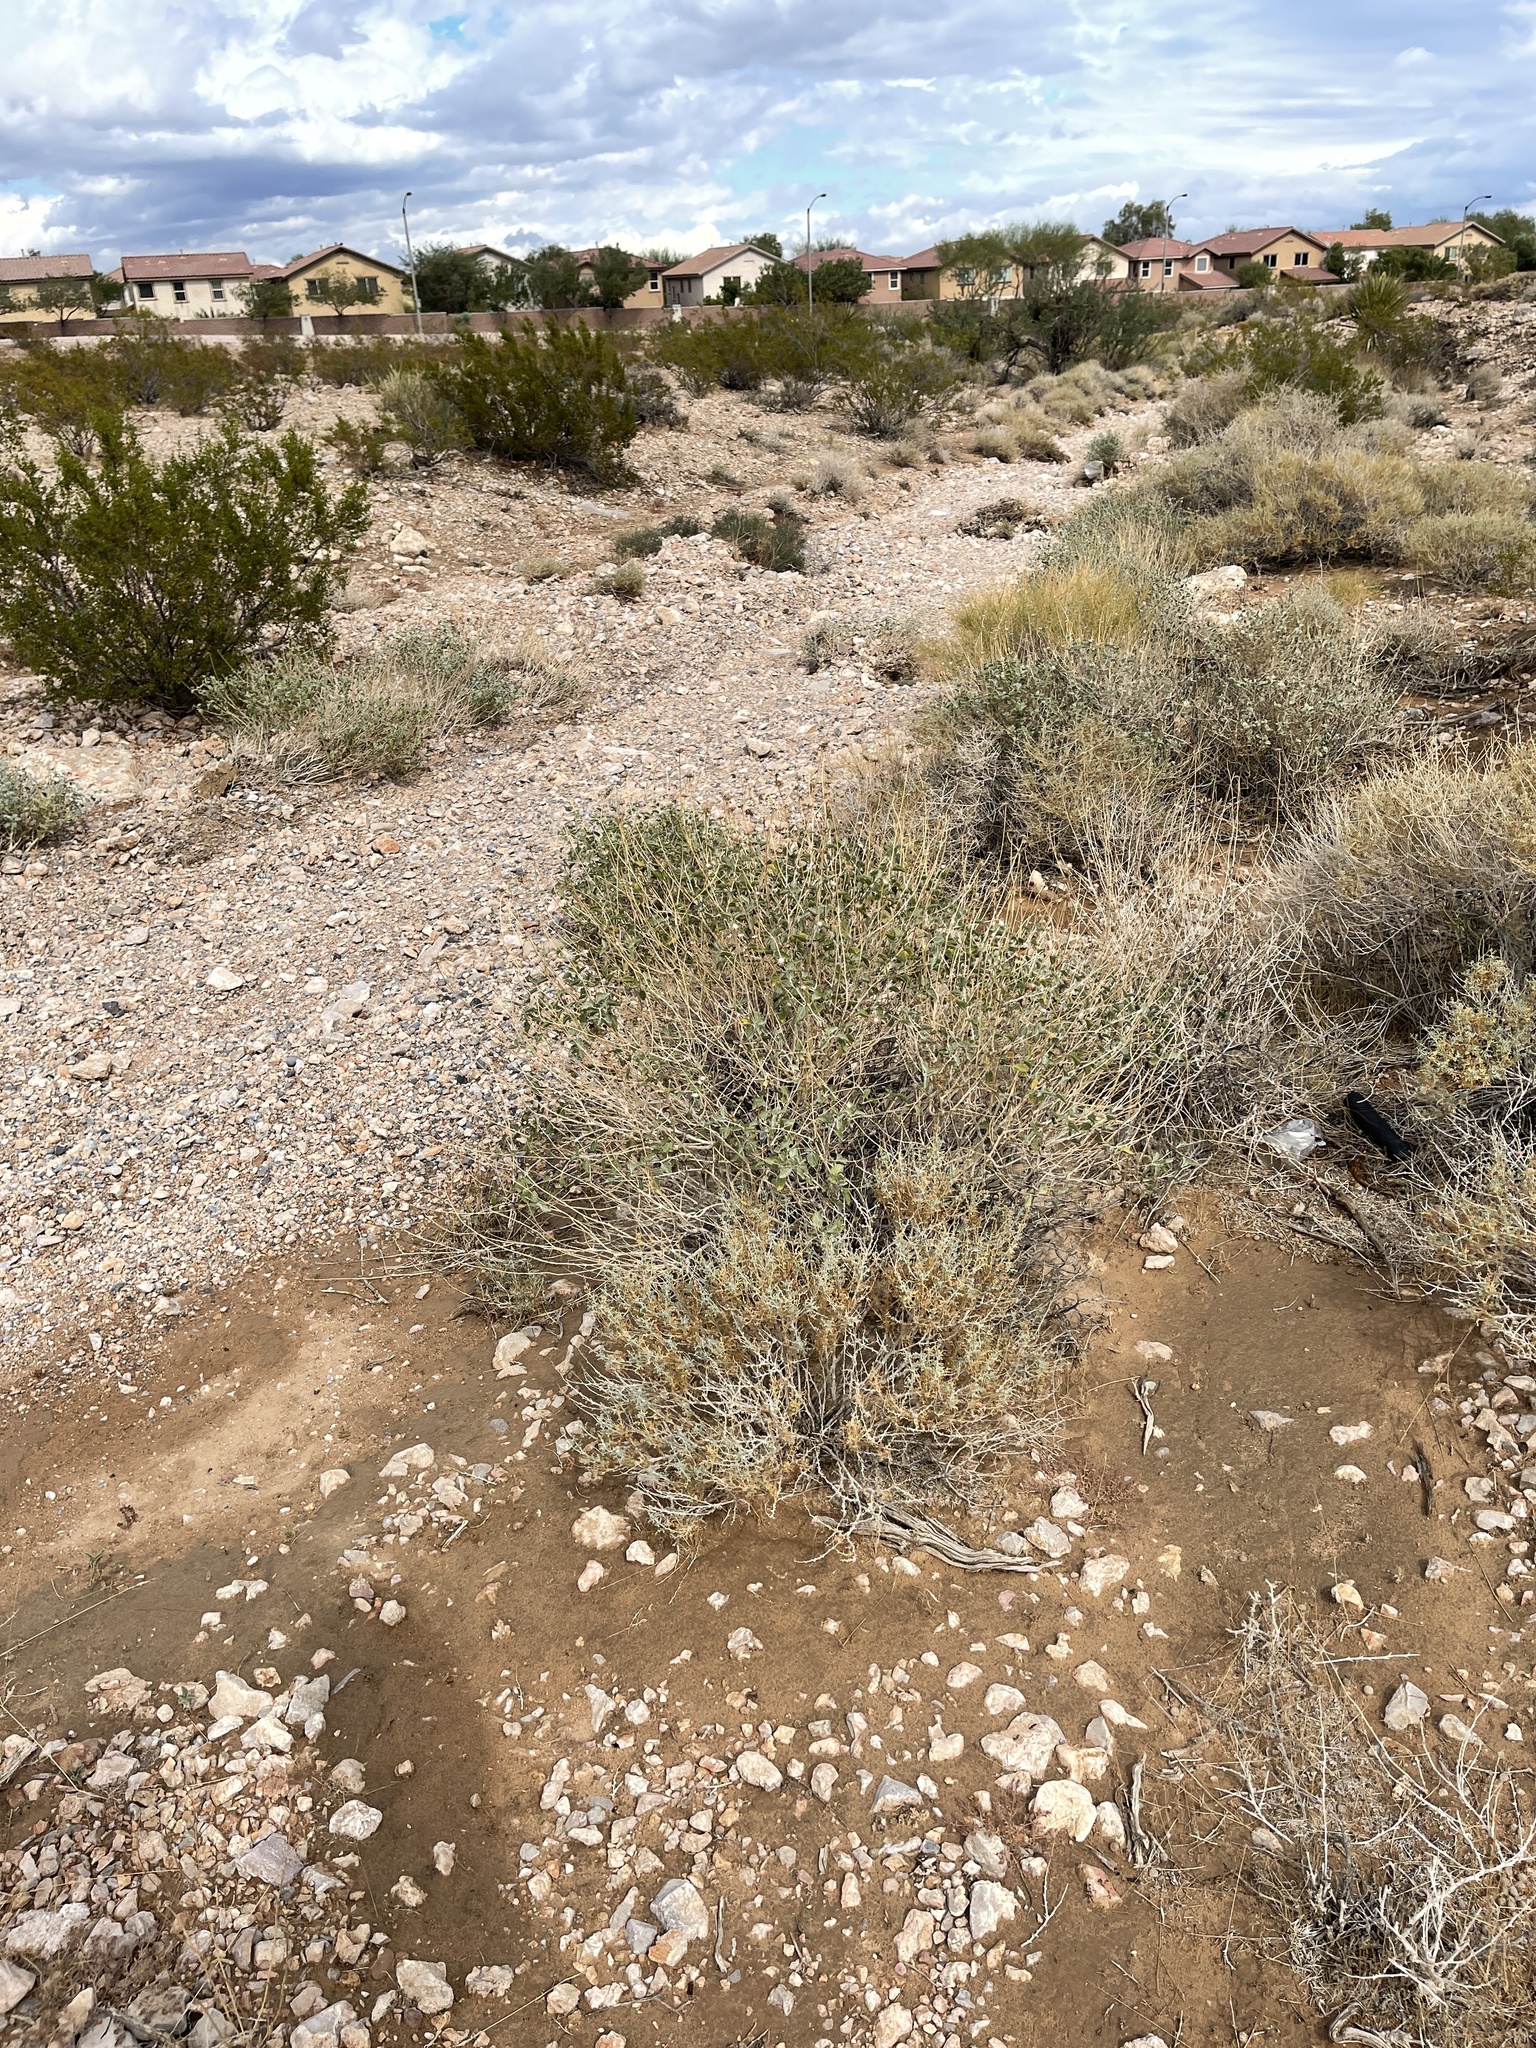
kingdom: Plantae
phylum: Tracheophyta
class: Magnoliopsida
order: Asterales
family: Asteraceae
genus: Ambrosia
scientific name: Ambrosia dumosa
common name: Bur-sage
